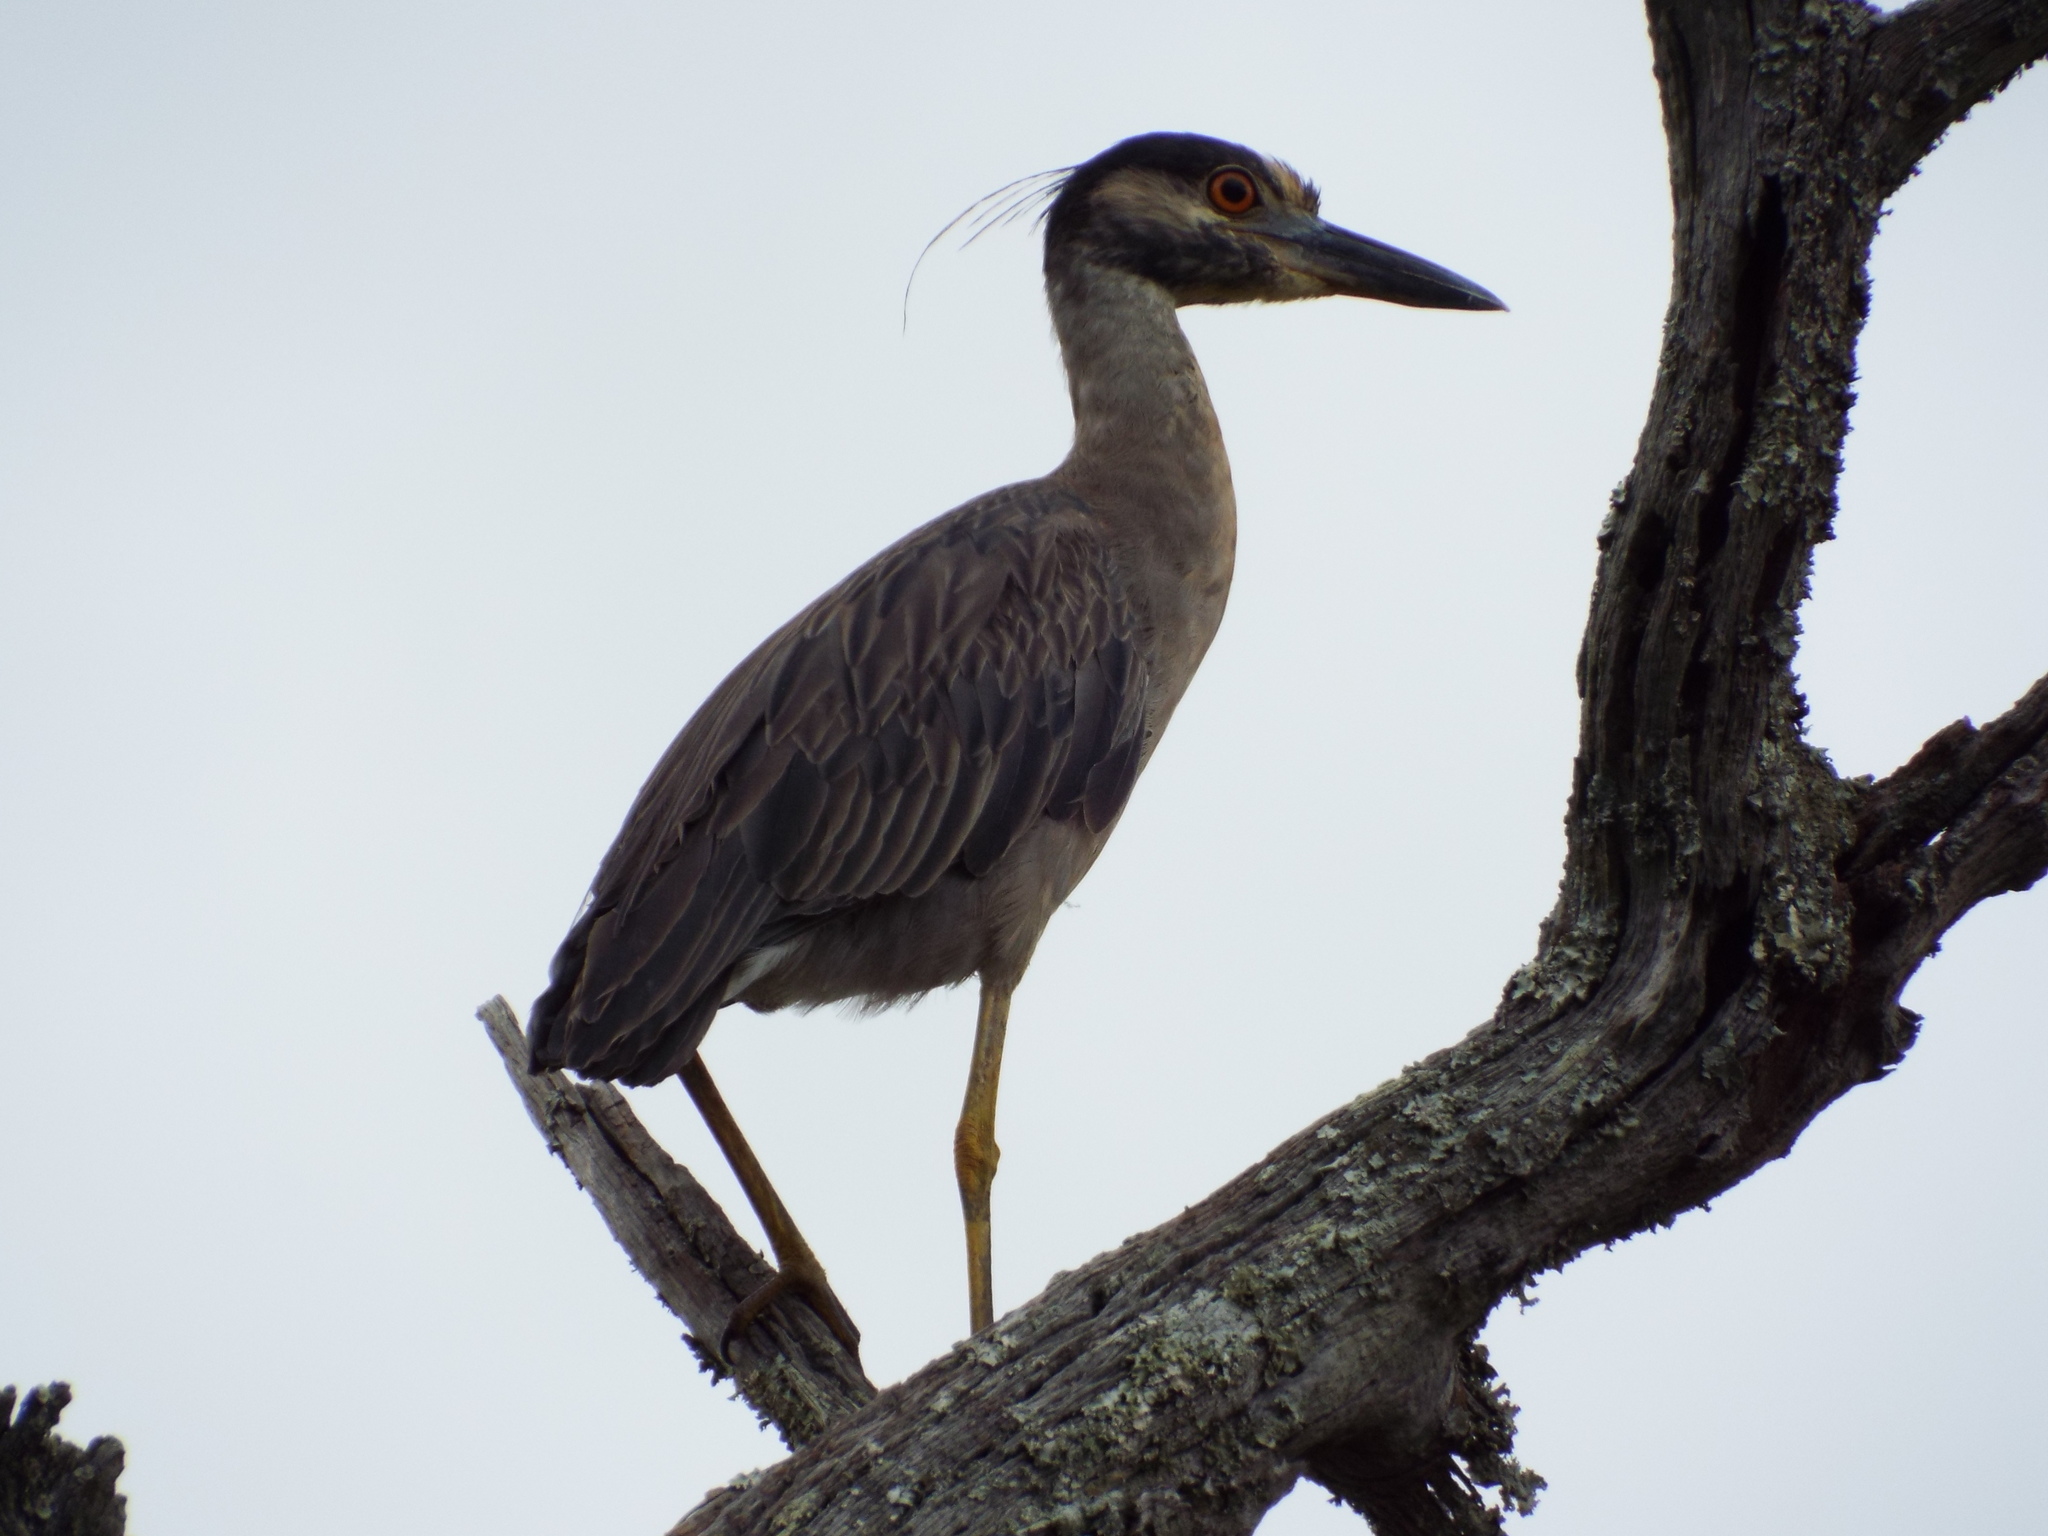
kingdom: Animalia
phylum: Chordata
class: Aves
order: Pelecaniformes
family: Ardeidae
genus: Nyctanassa
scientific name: Nyctanassa violacea
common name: Yellow-crowned night heron
